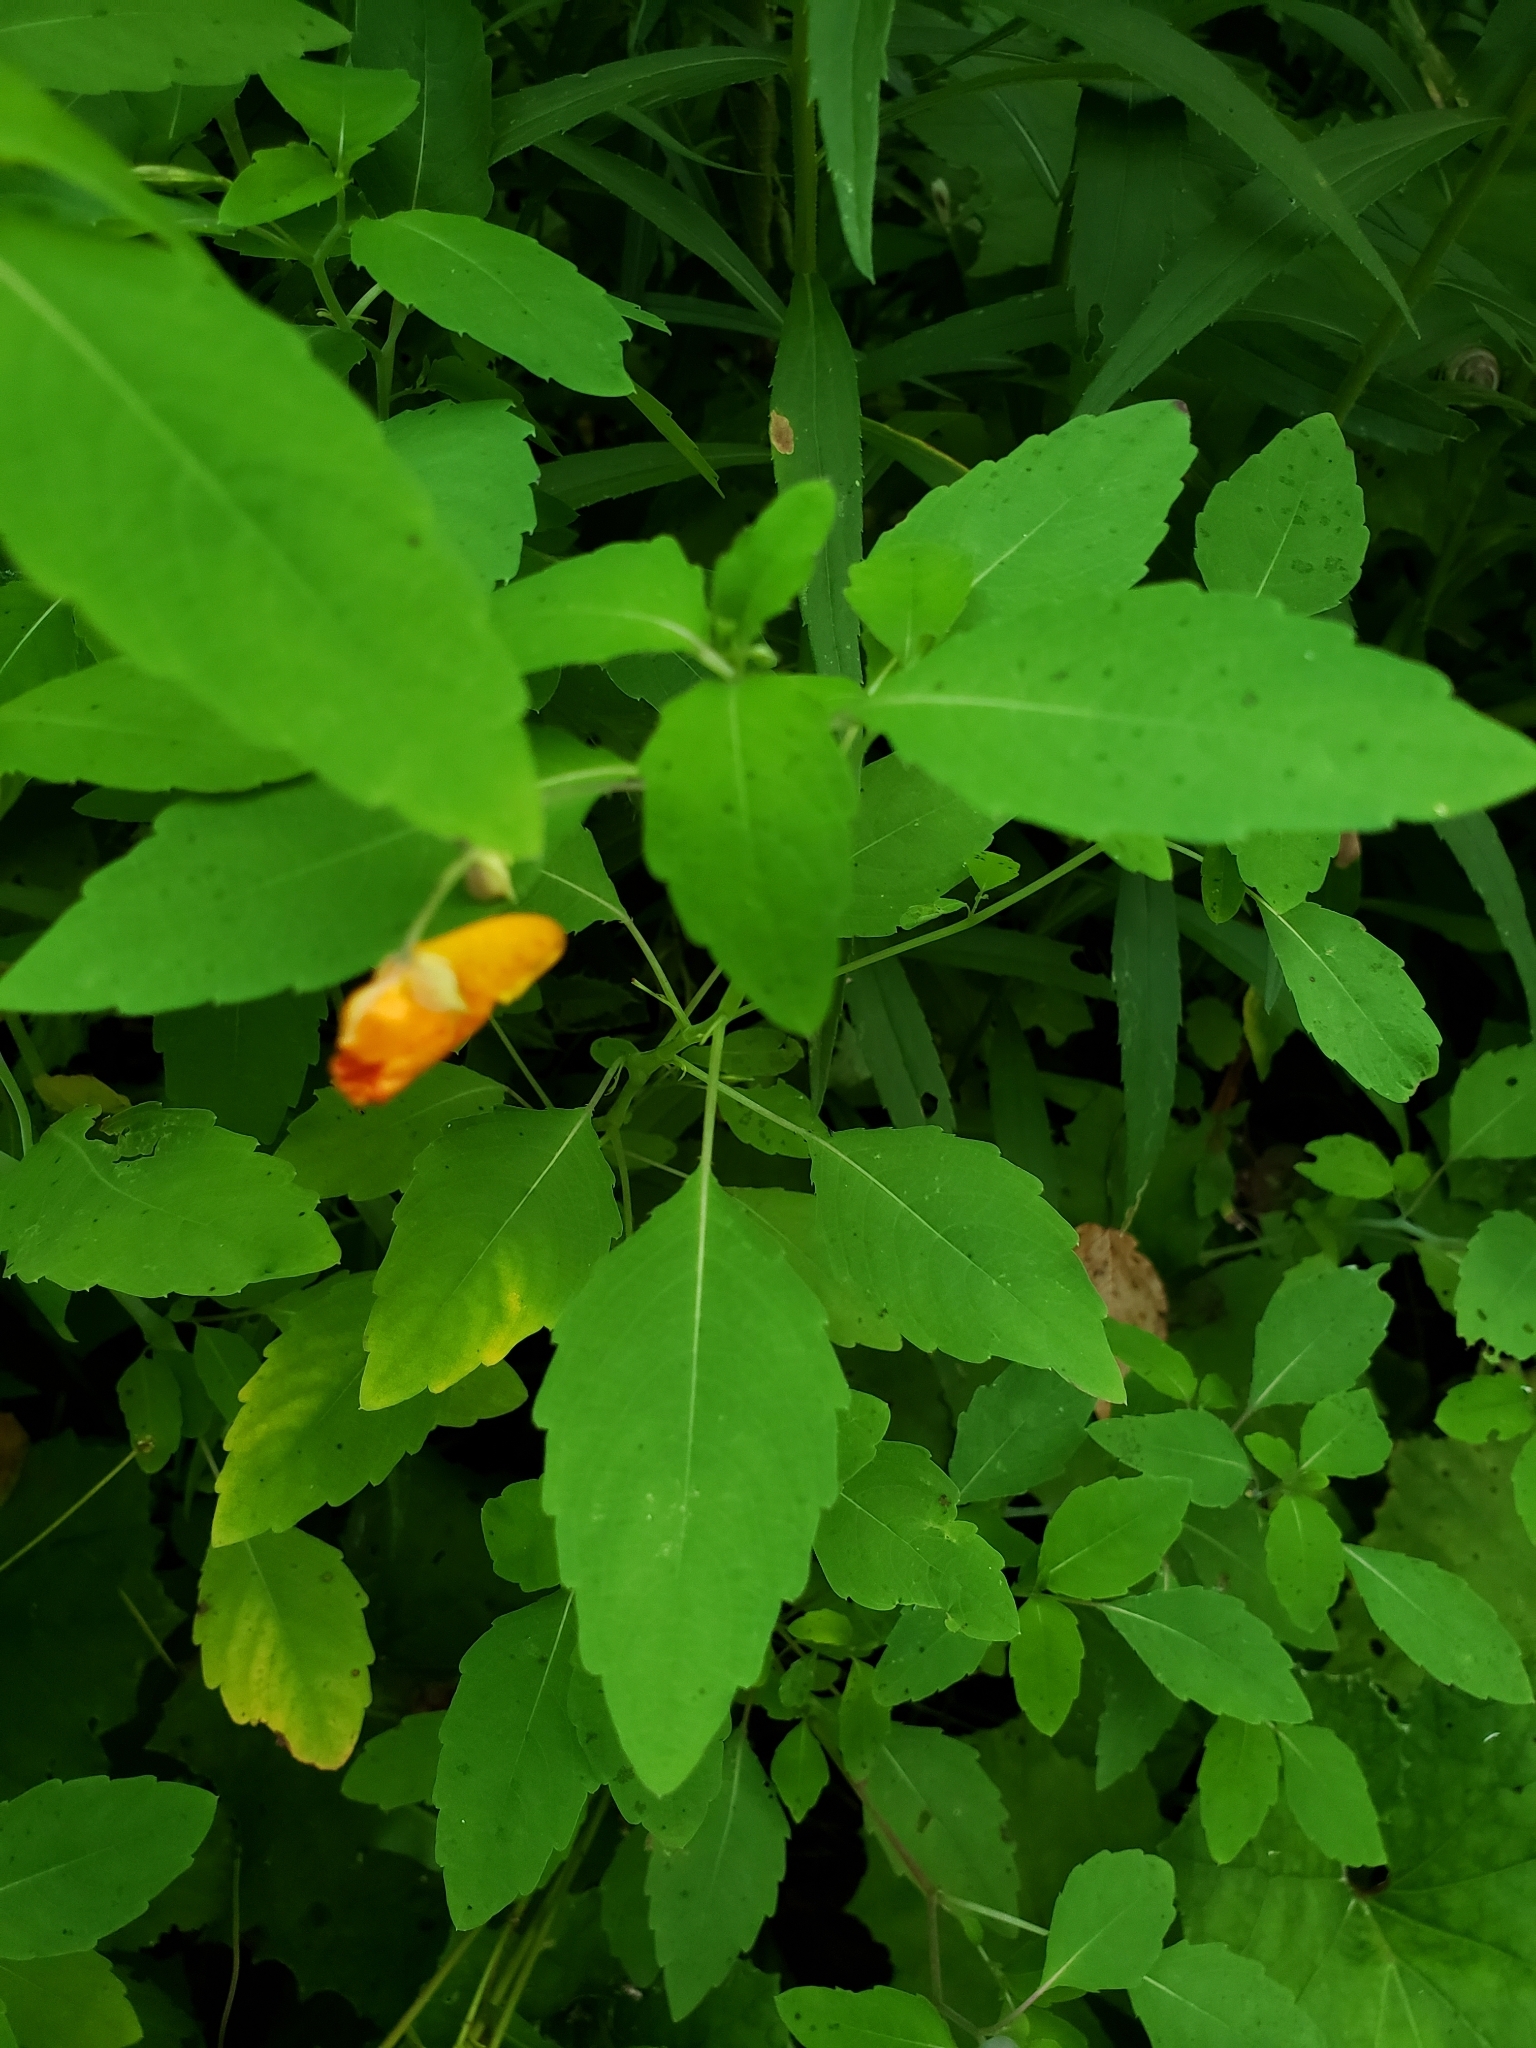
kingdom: Plantae
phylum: Tracheophyta
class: Magnoliopsida
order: Ericales
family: Balsaminaceae
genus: Impatiens
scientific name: Impatiens capensis
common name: Orange balsam
